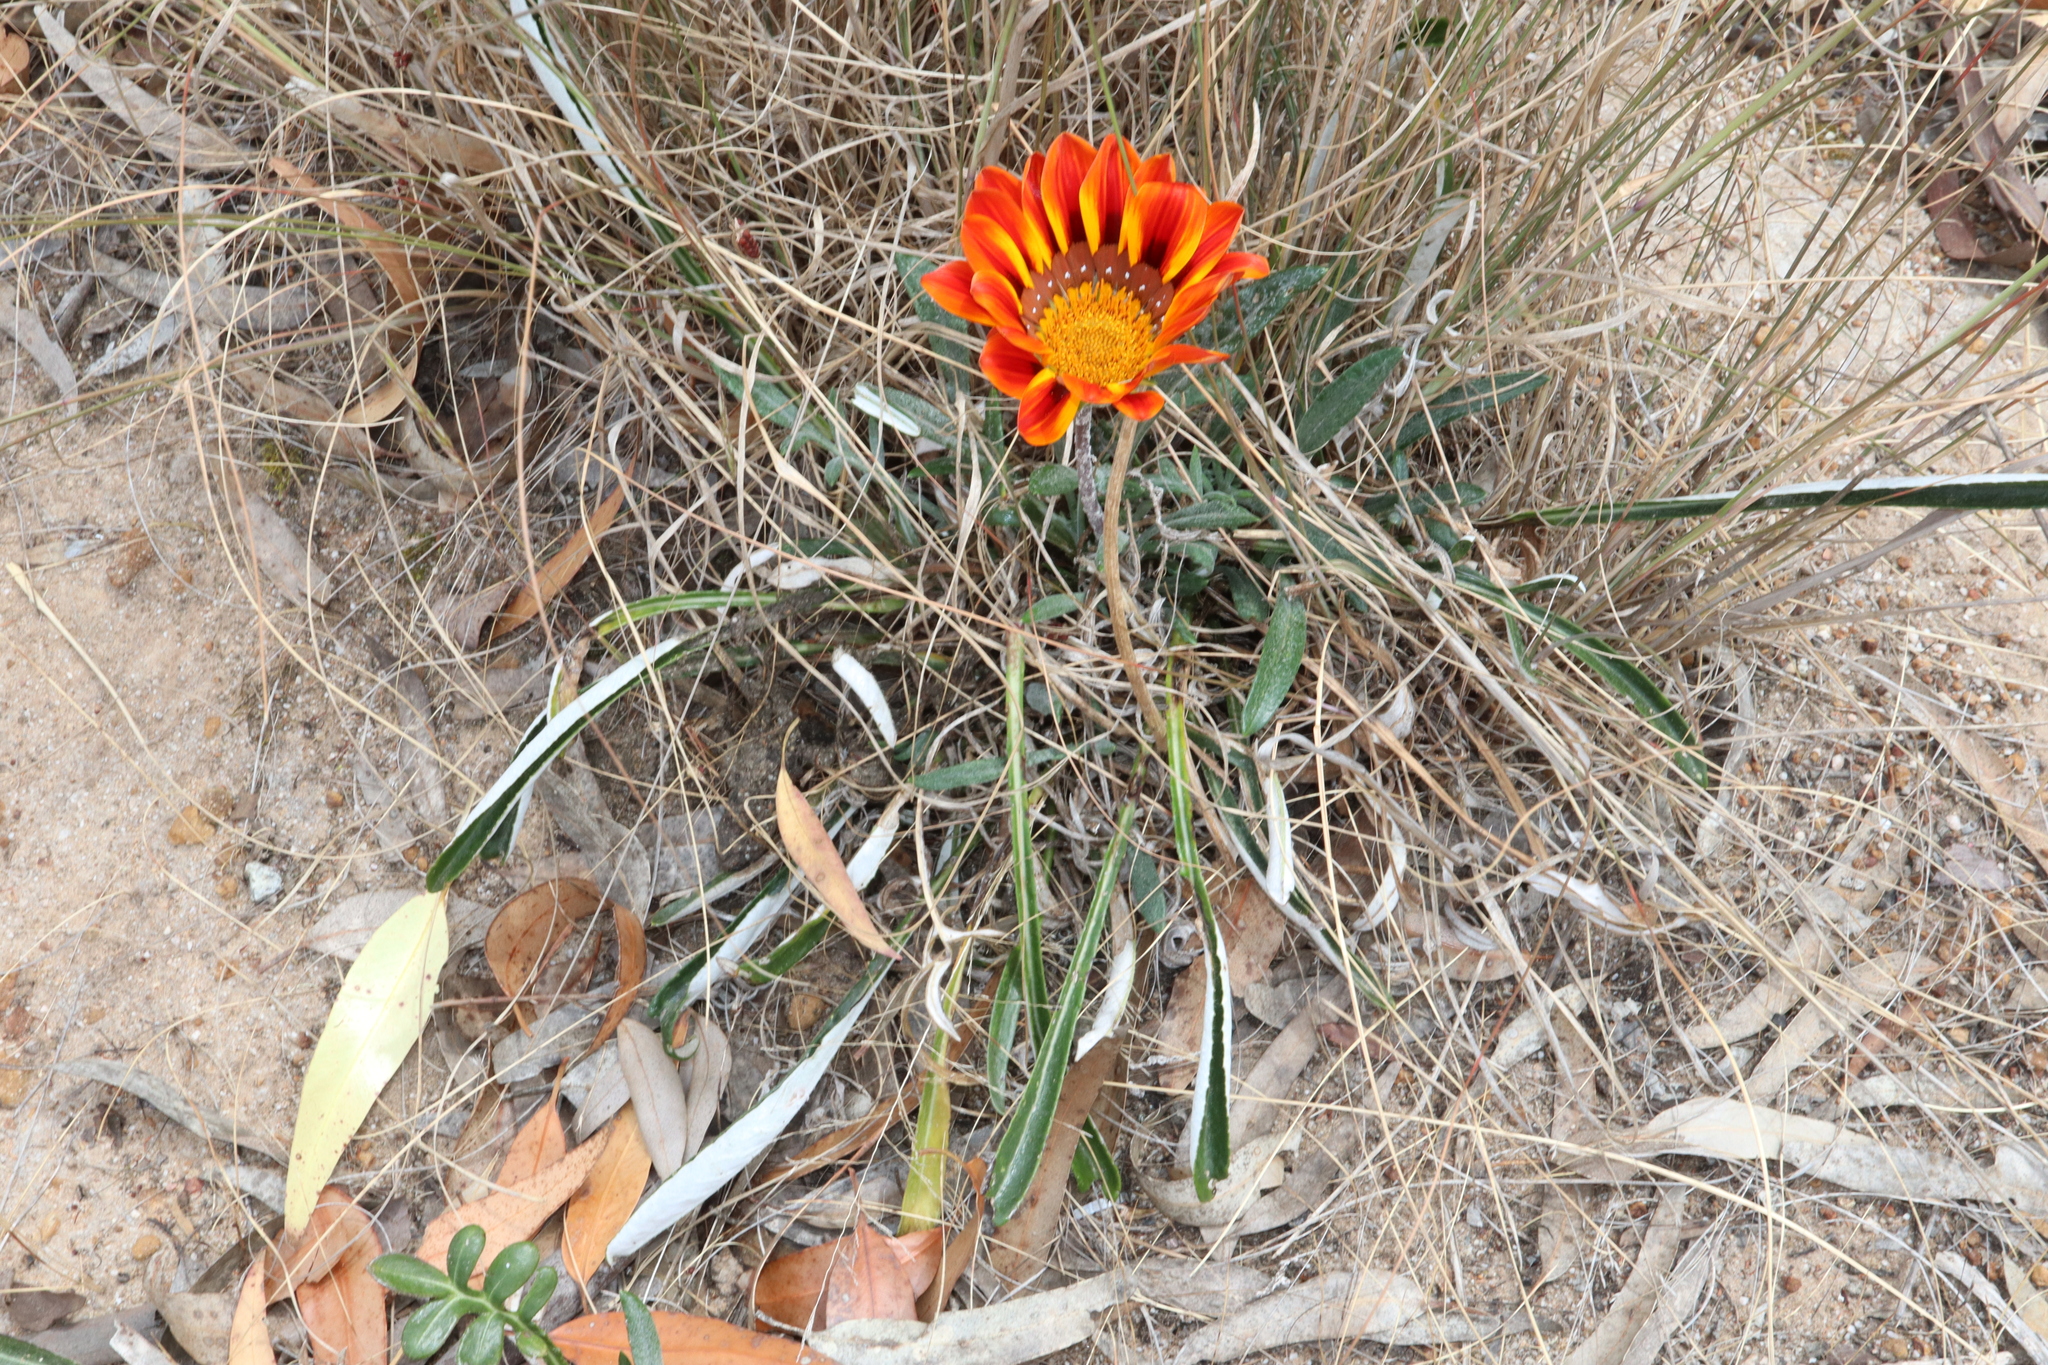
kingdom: Plantae
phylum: Tracheophyta
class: Magnoliopsida
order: Asterales
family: Asteraceae
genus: Gazania
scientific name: Gazania splendens
